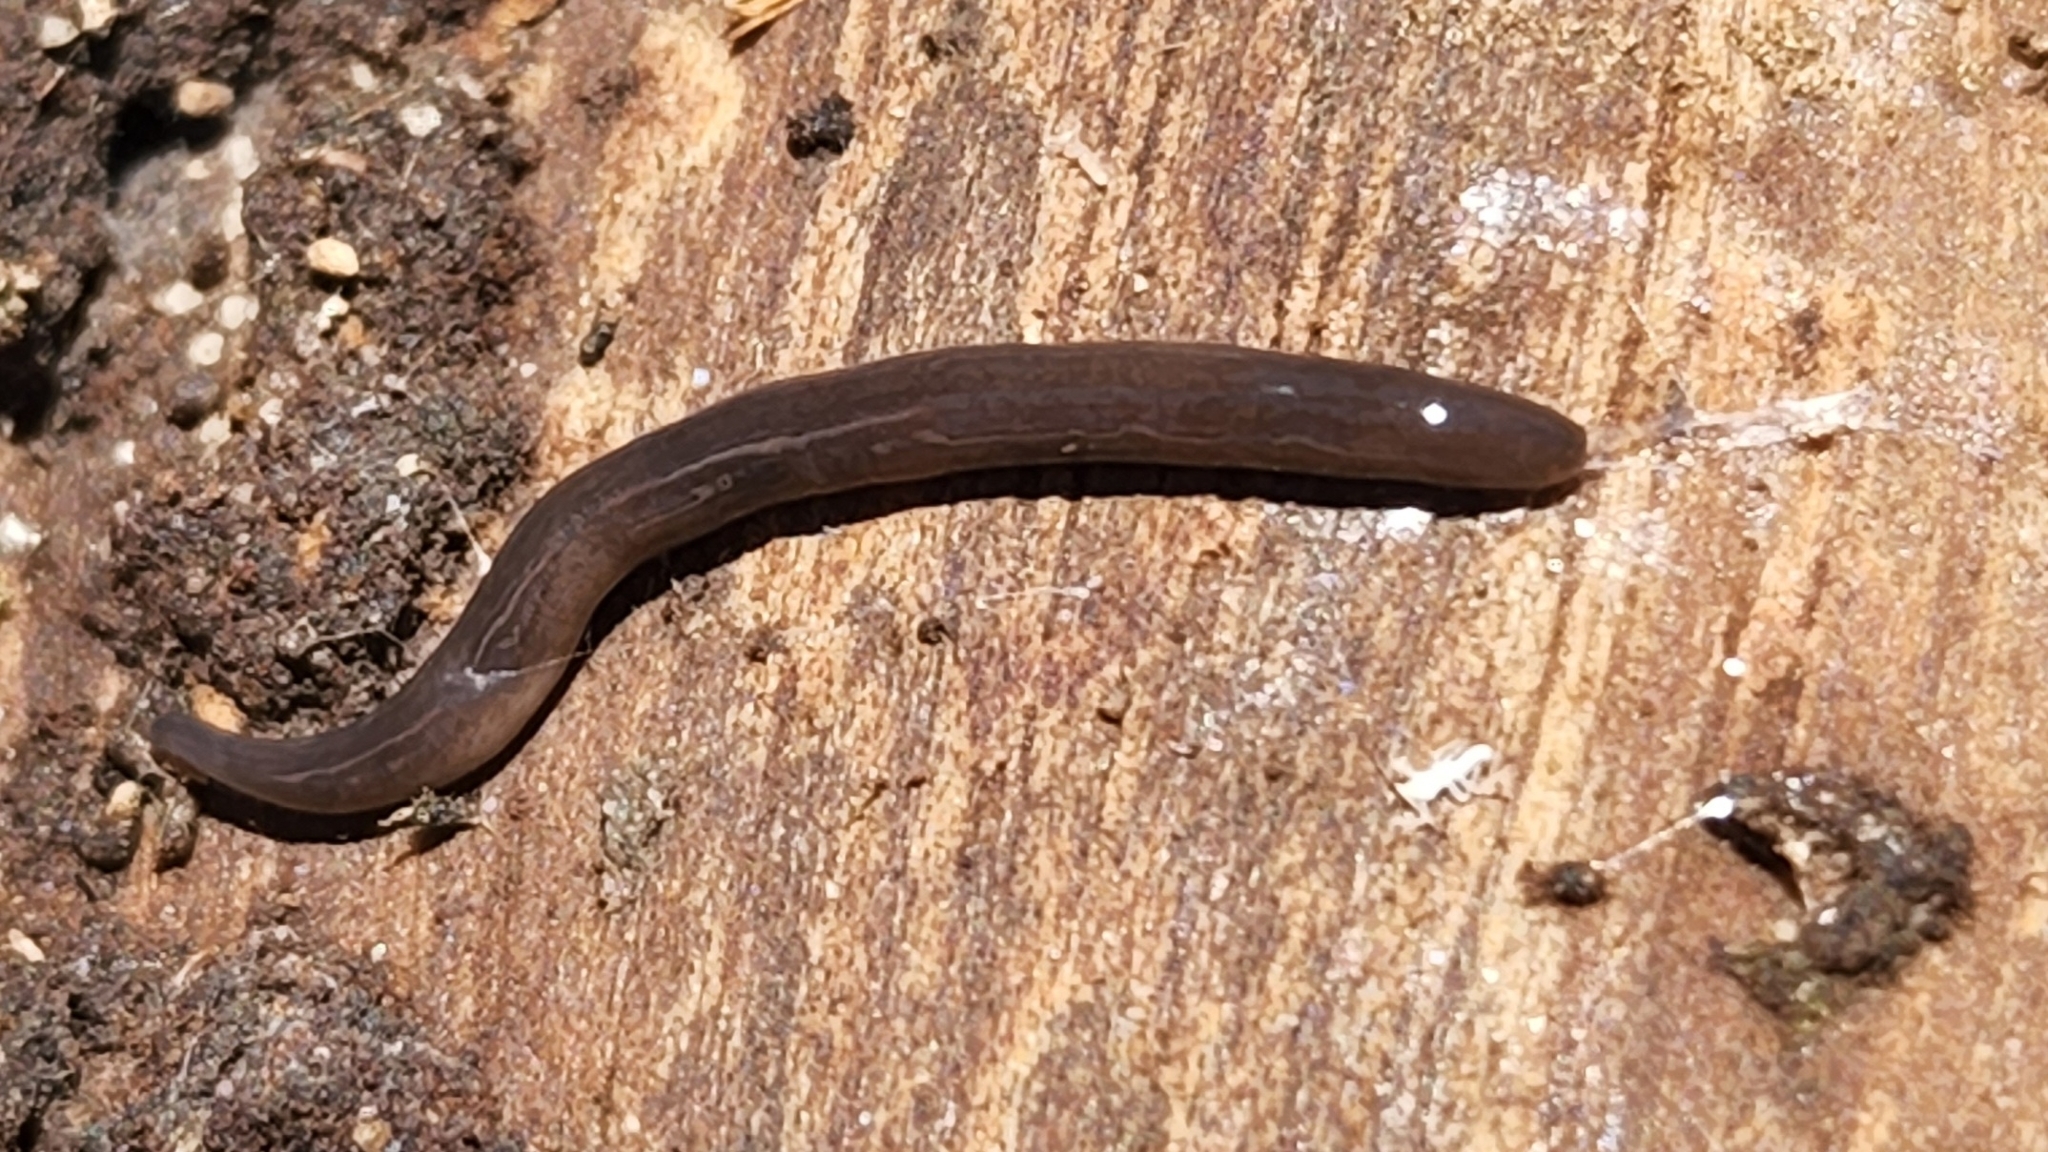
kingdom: Animalia
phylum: Platyhelminthes
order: Tricladida
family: Geoplanidae
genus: Parakontikia
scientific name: Parakontikia ventrolineata
